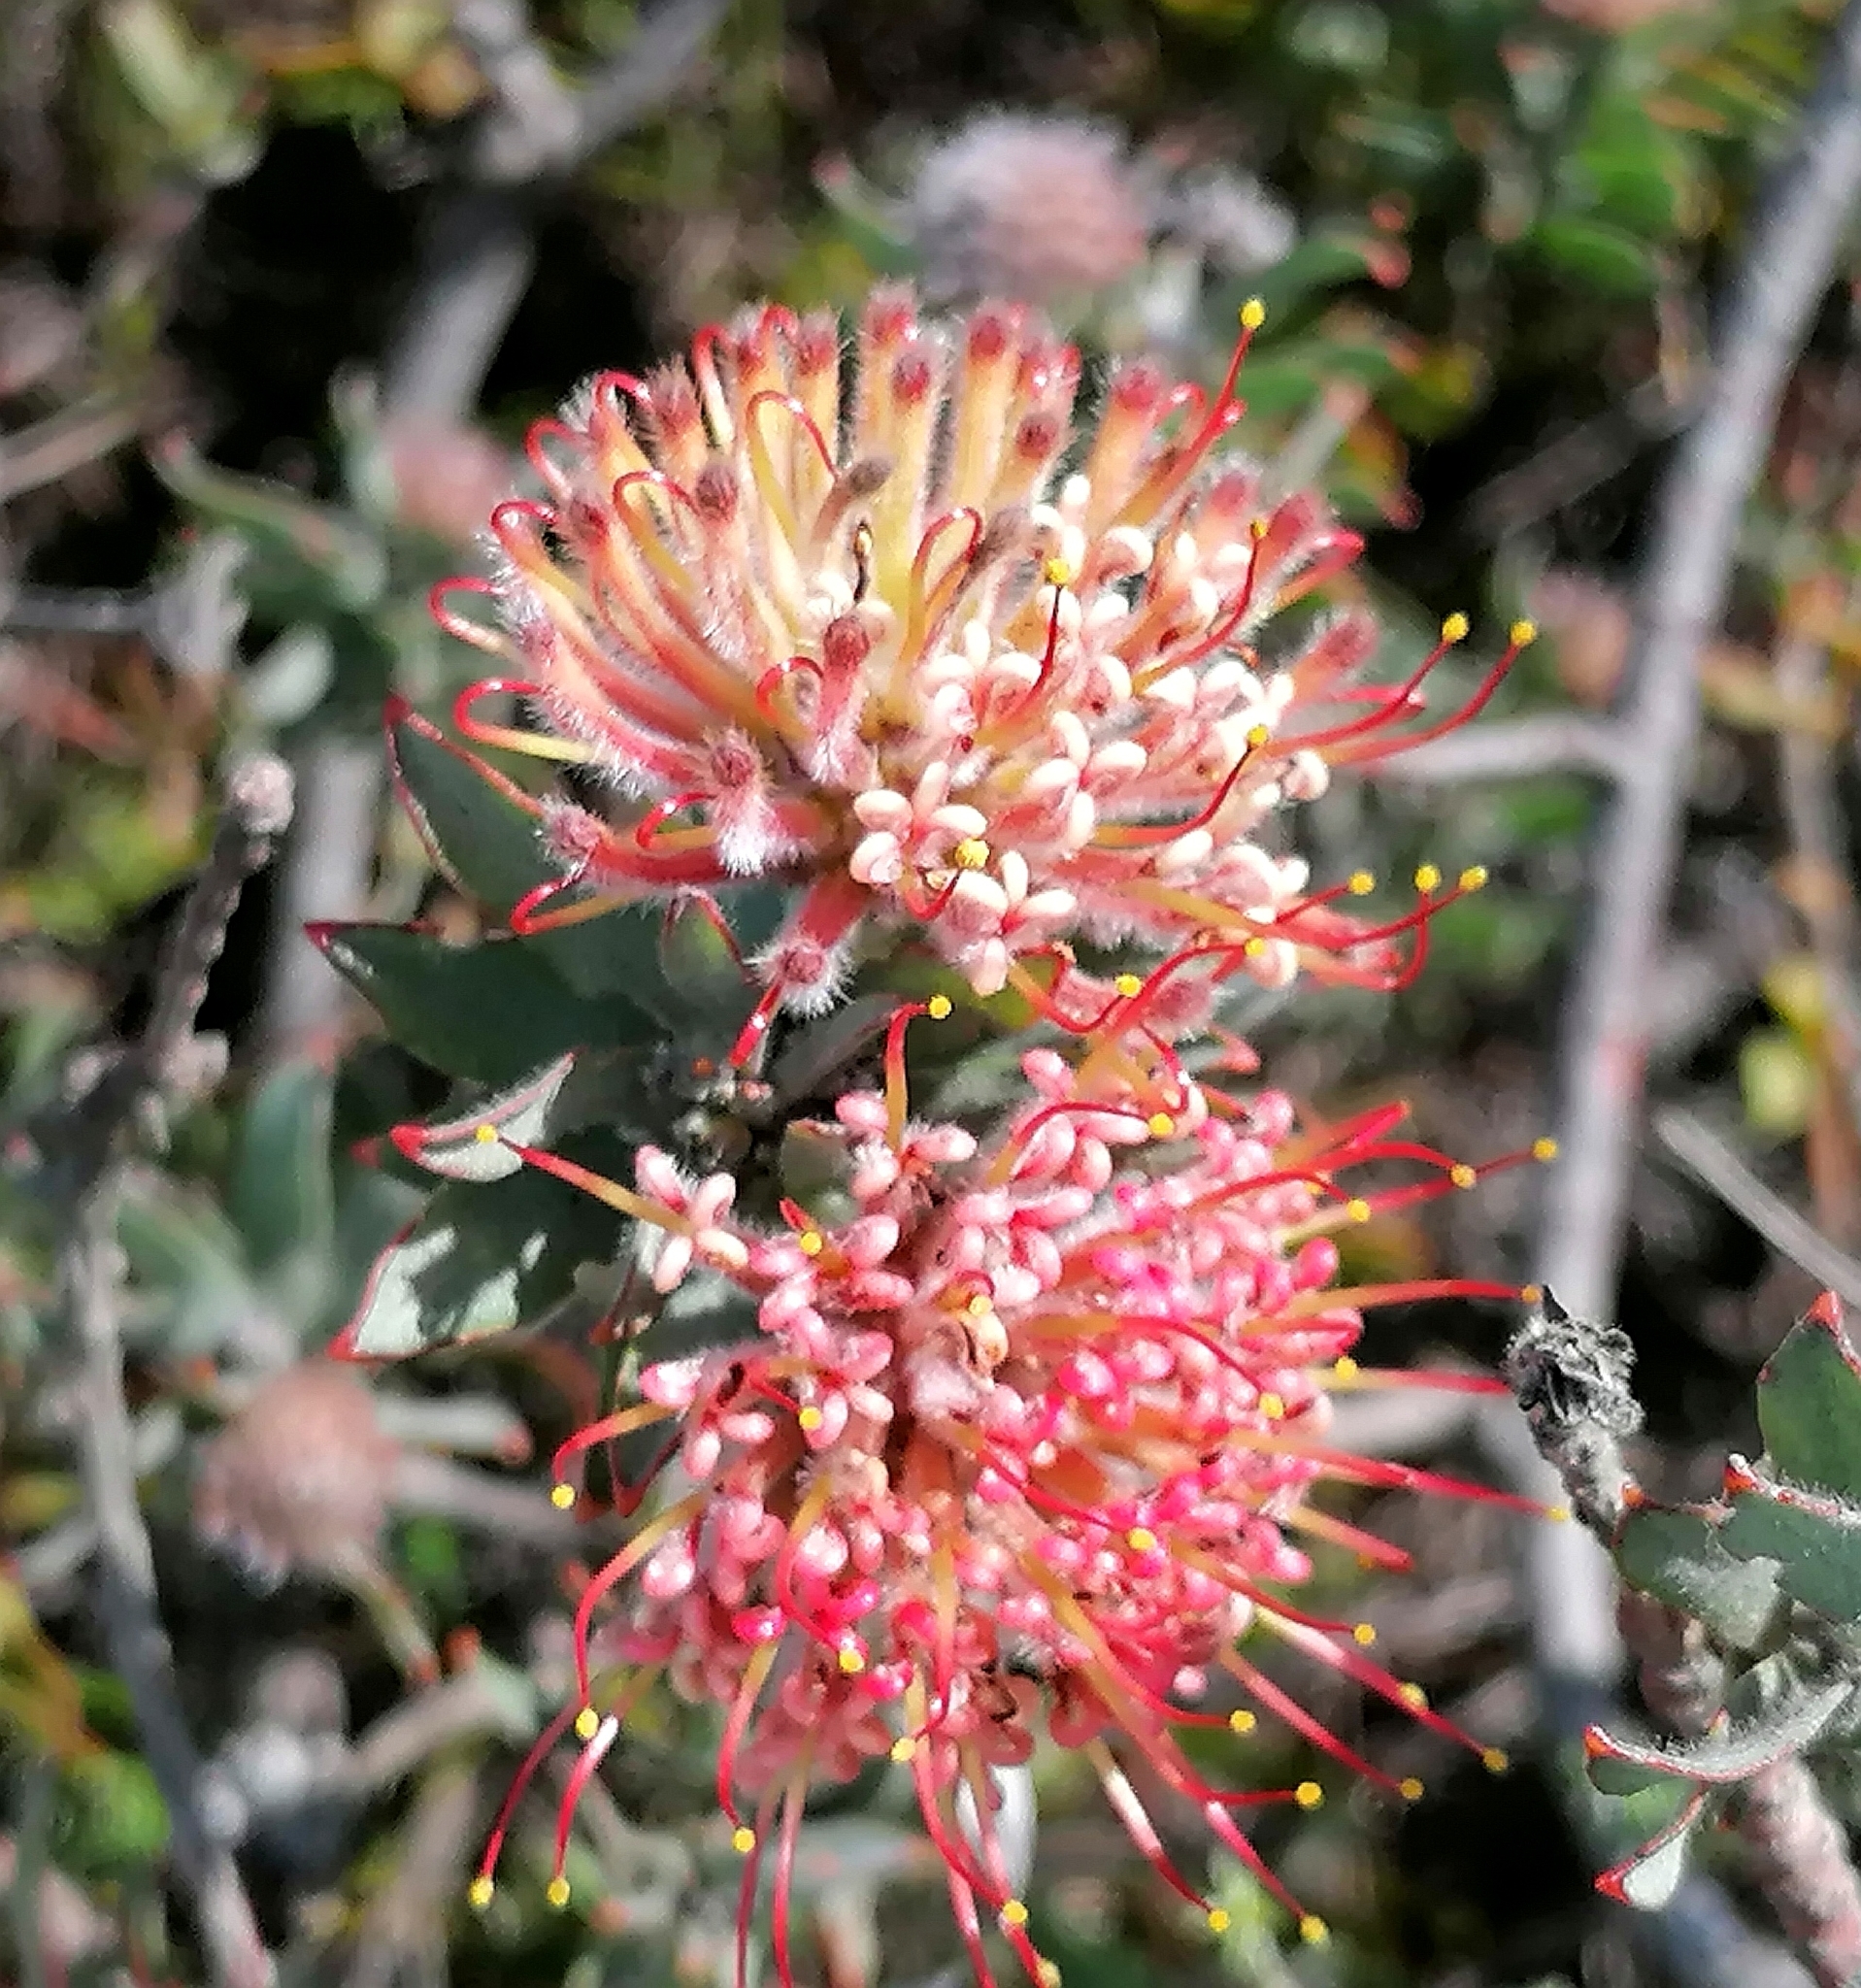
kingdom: Plantae
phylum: Tracheophyta
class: Magnoliopsida
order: Proteales
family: Proteaceae
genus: Leucospermum
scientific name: Leucospermum calligerum
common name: Arid pincushion
